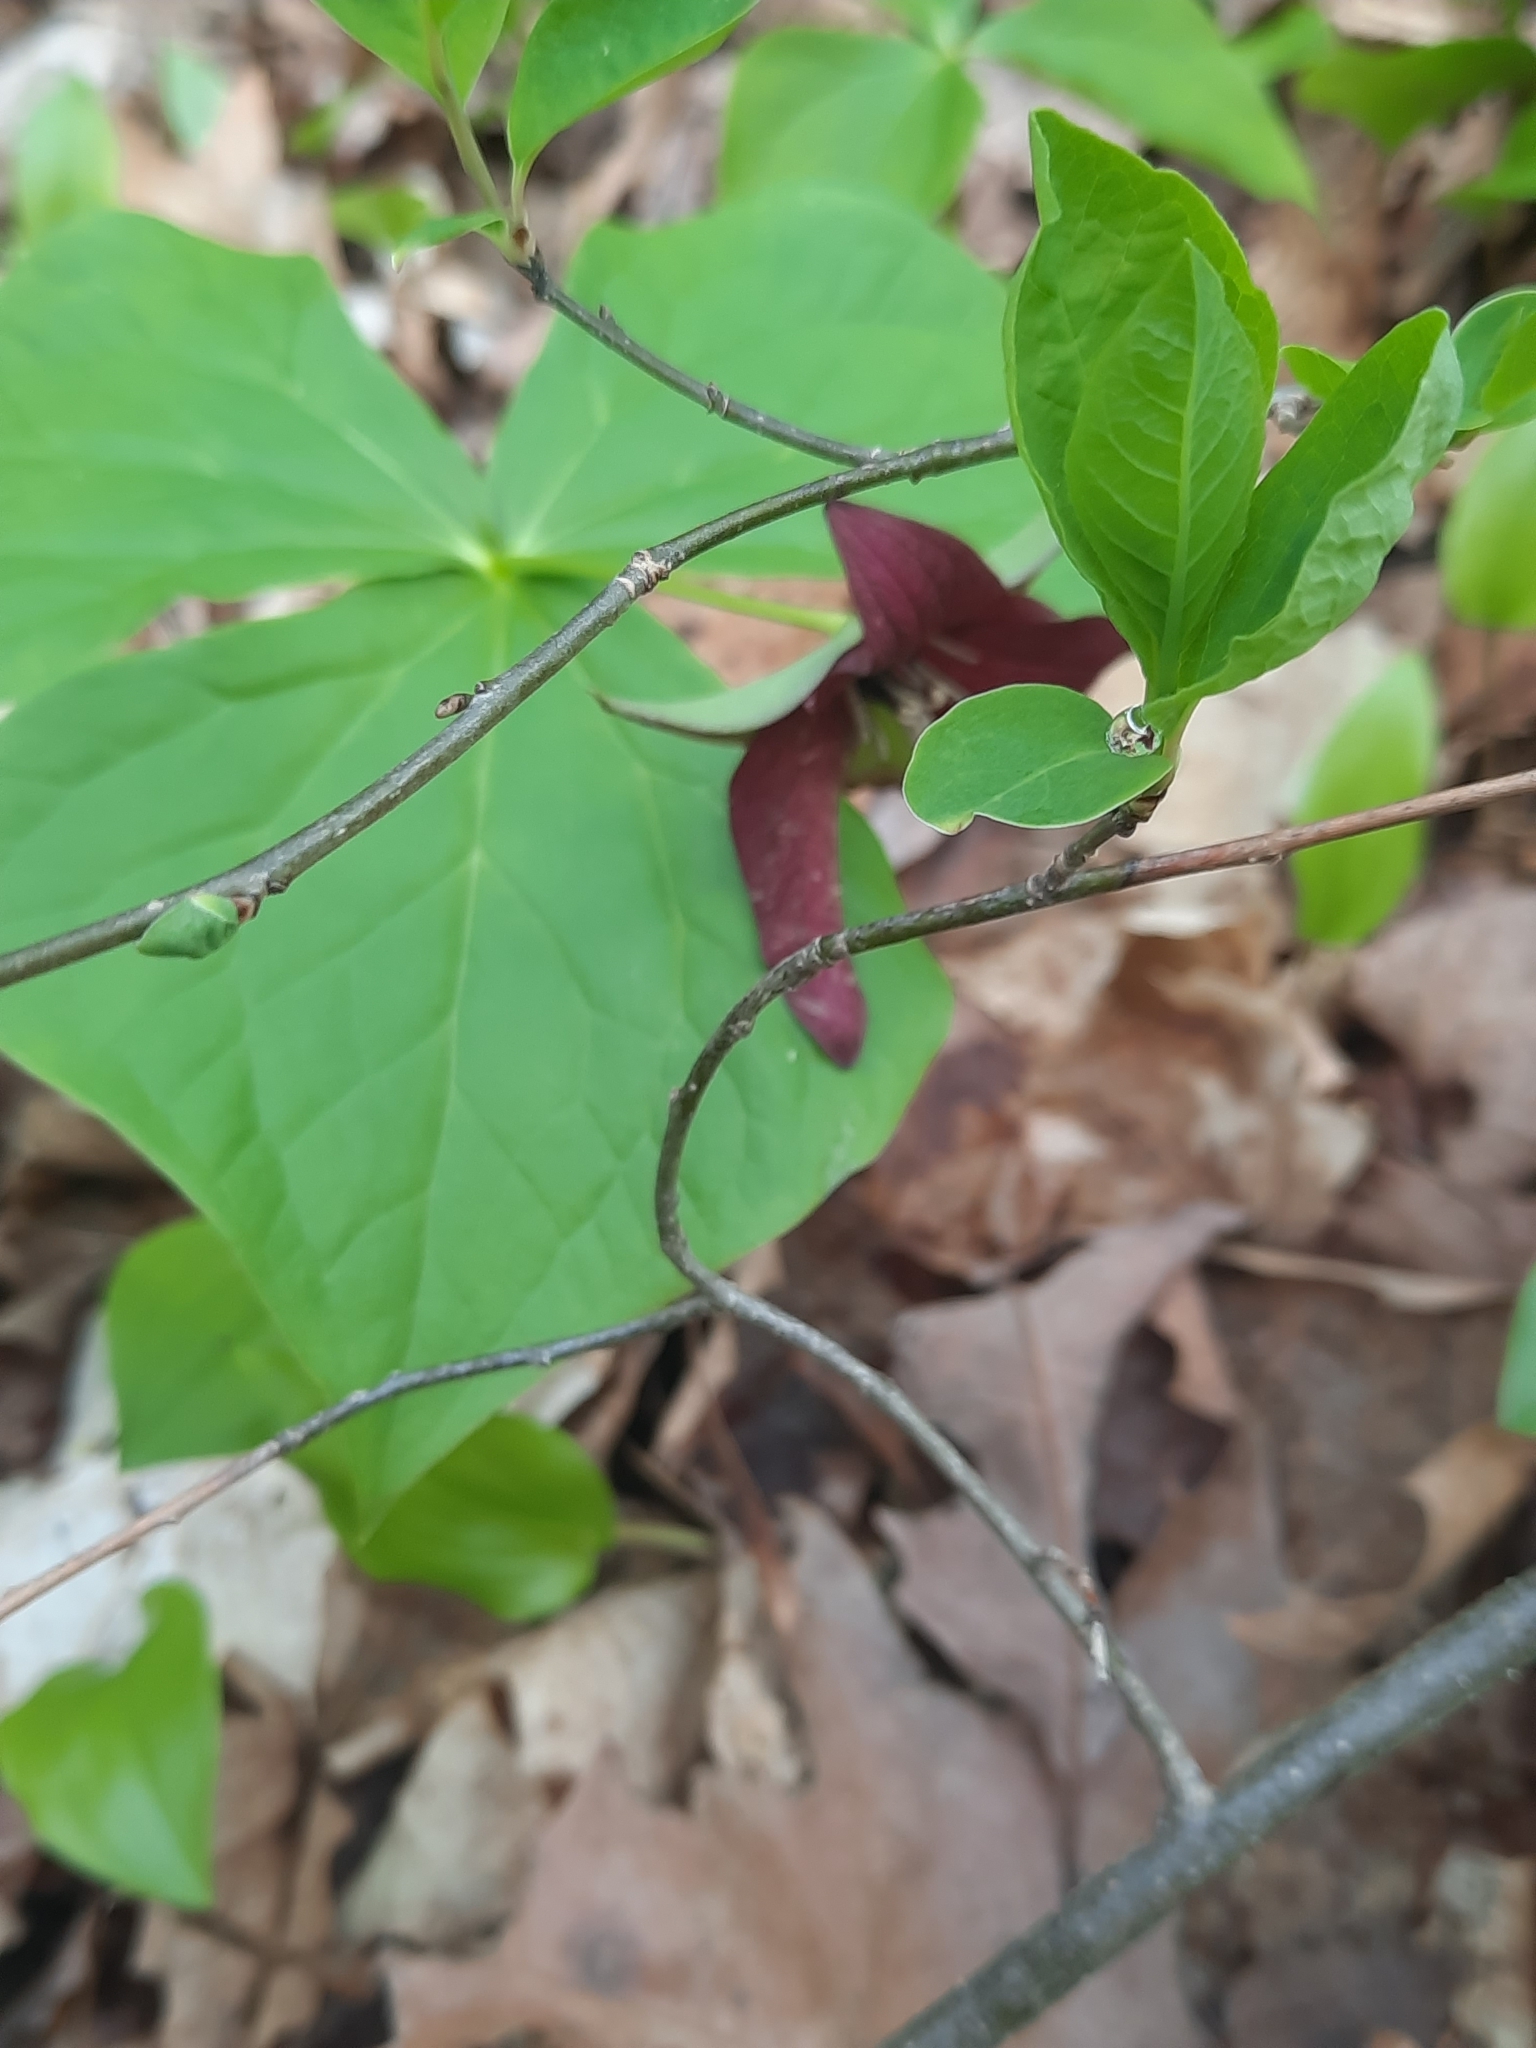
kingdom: Plantae
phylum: Tracheophyta
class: Liliopsida
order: Liliales
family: Melanthiaceae
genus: Trillium
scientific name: Trillium erectum
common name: Purple trillium
